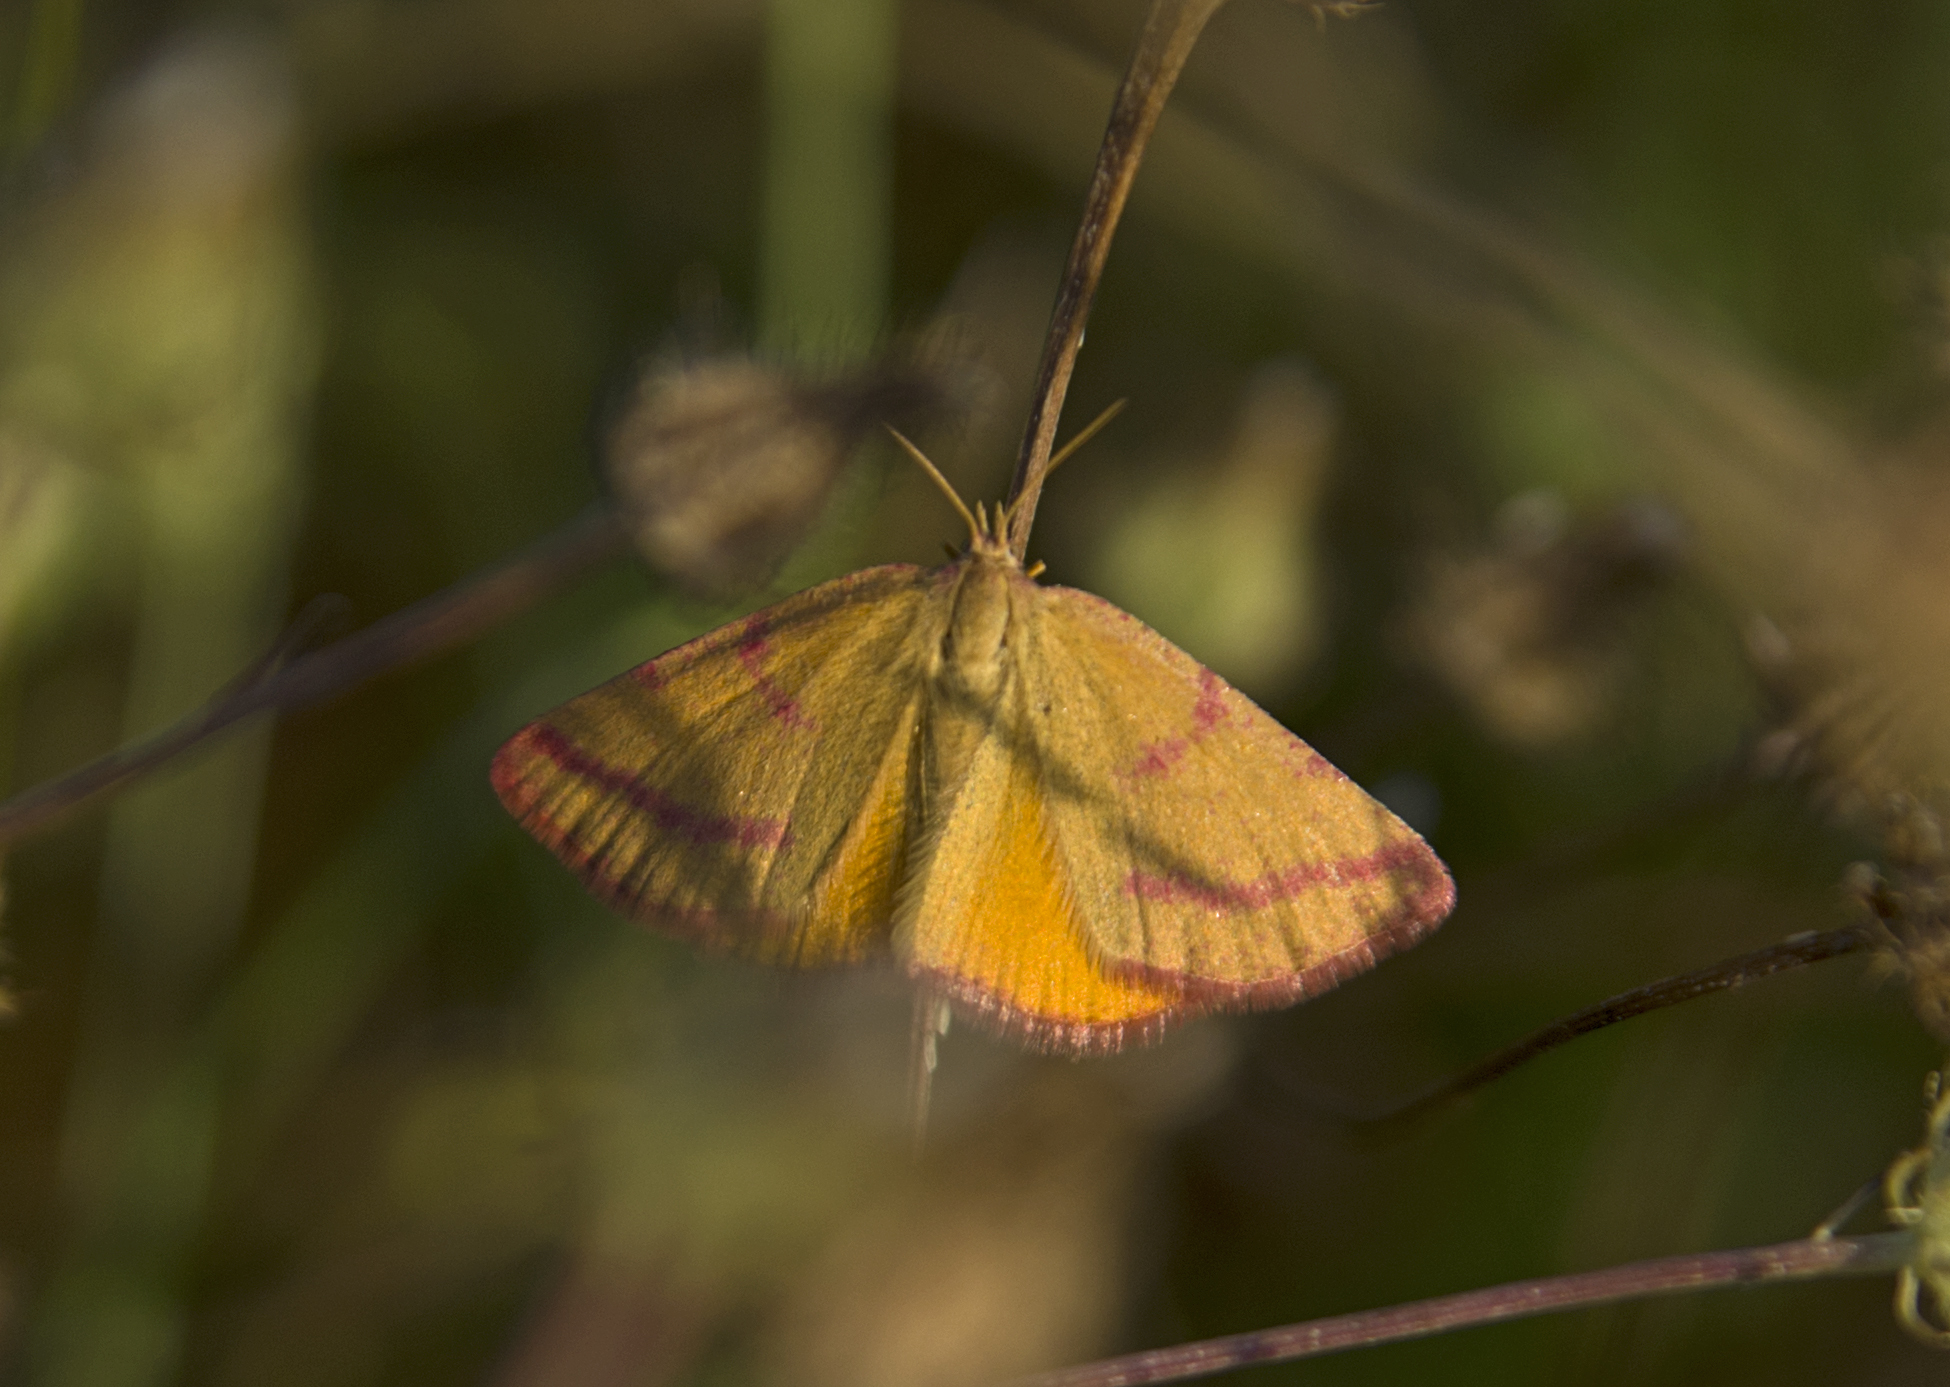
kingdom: Animalia
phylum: Arthropoda
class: Insecta
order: Lepidoptera
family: Geometridae
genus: Lythria
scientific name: Lythria purpuraria
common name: Purple-barred yellow
